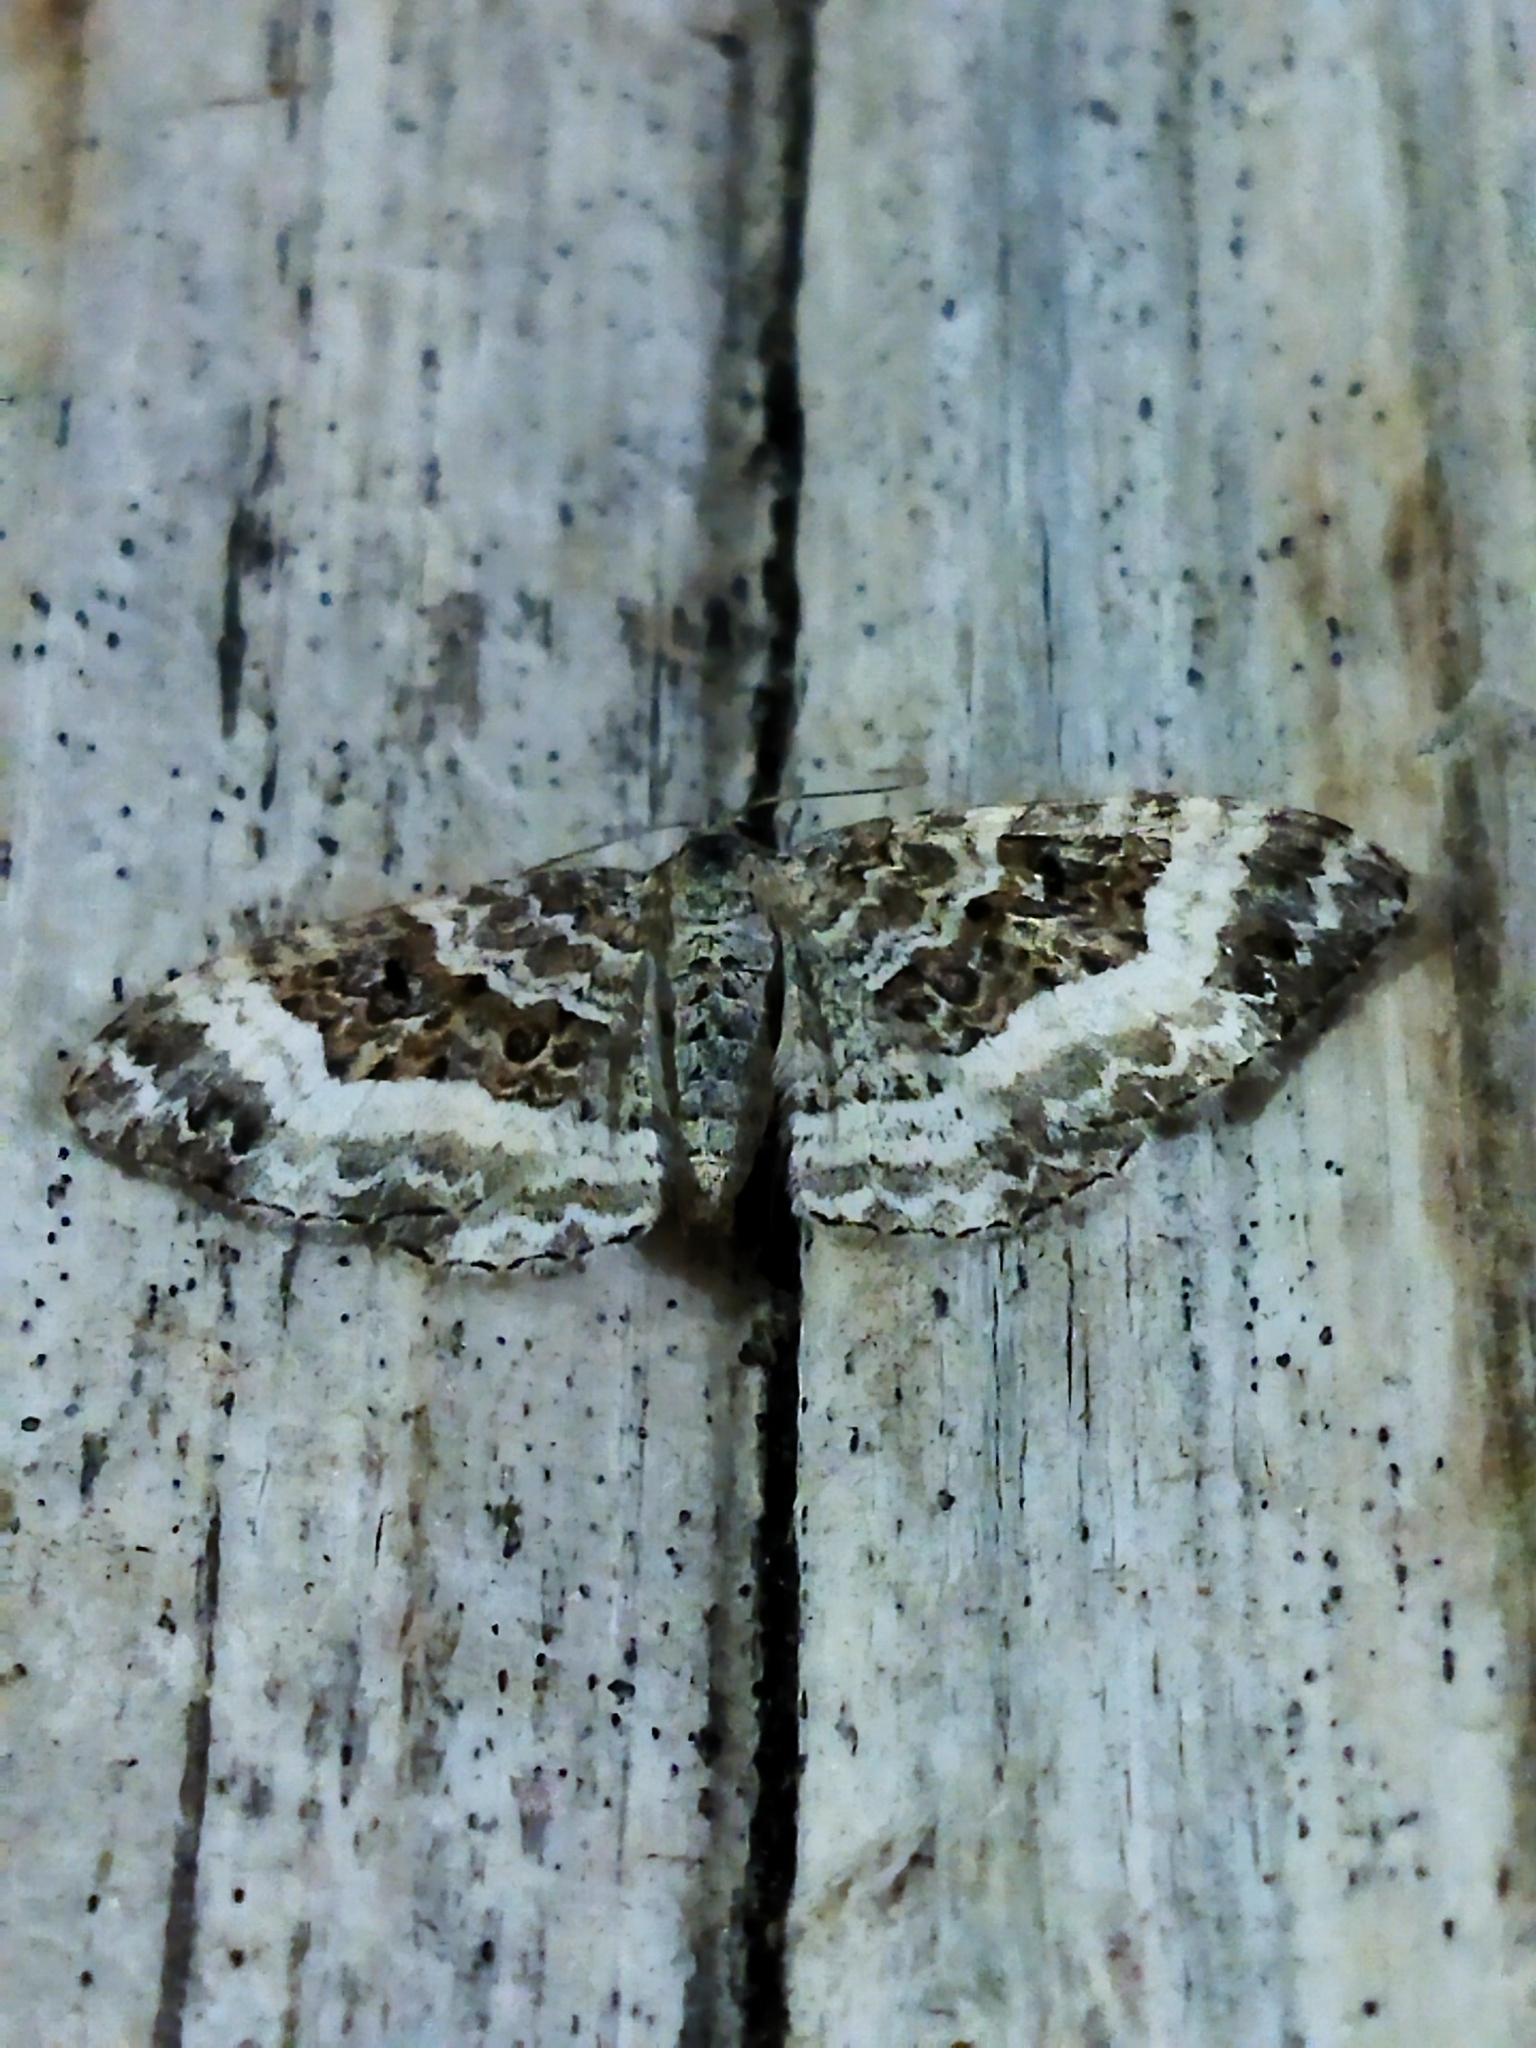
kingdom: Animalia
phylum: Arthropoda
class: Insecta
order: Lepidoptera
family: Geometridae
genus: Epirrhoe
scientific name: Epirrhoe alternata
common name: Common carpet
